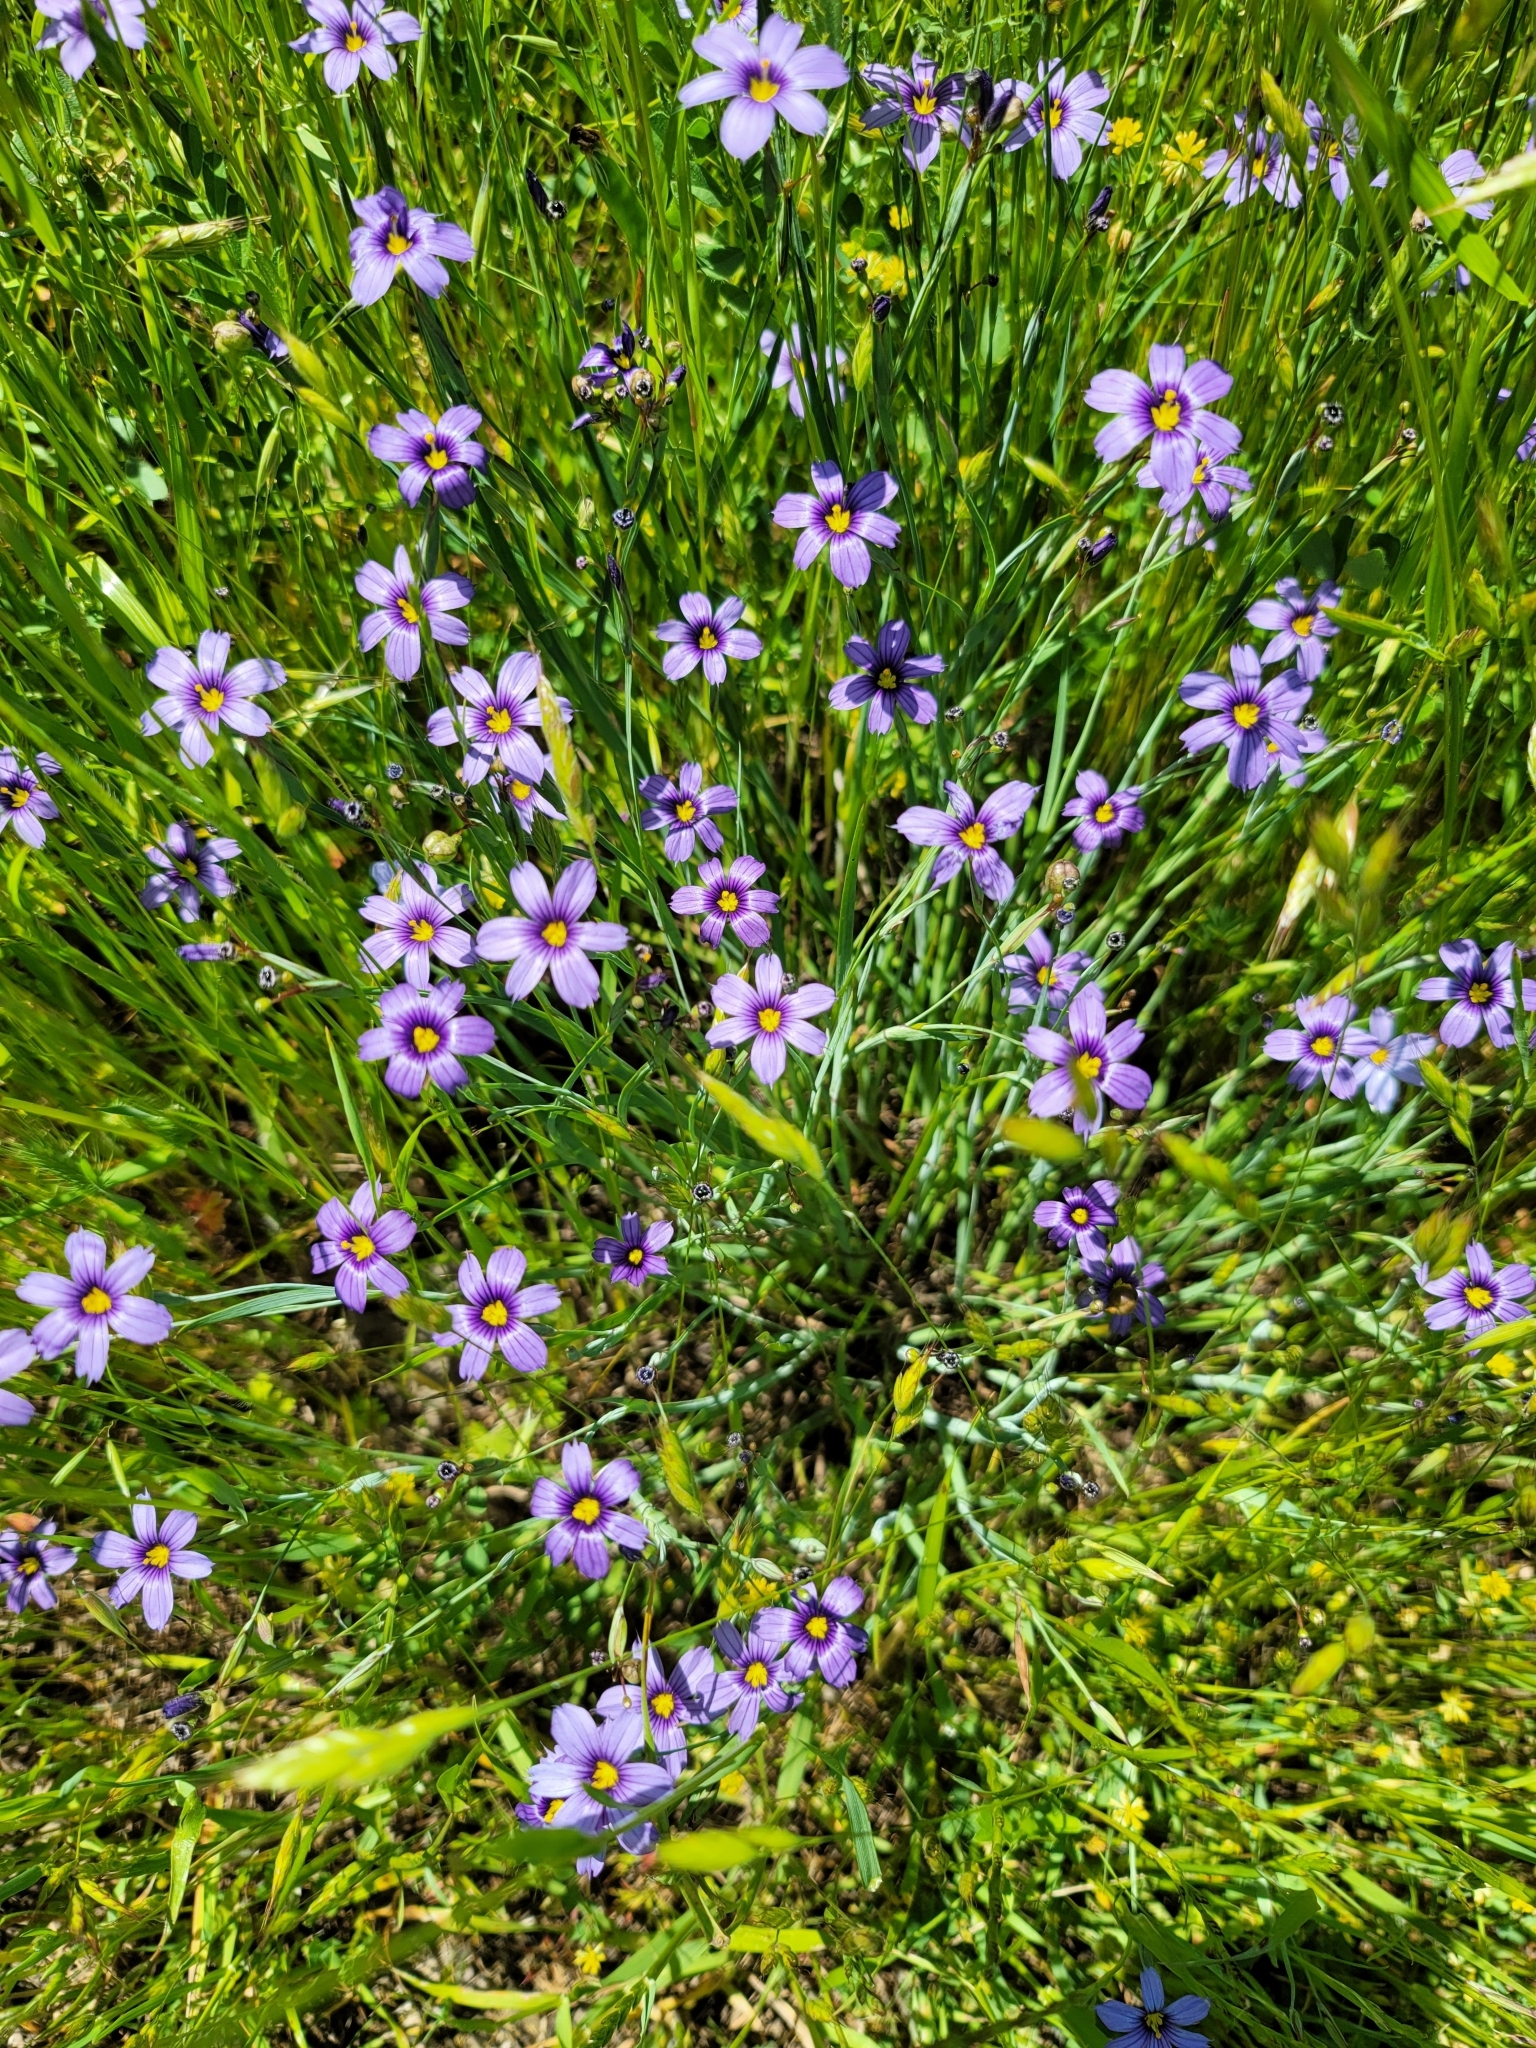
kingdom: Plantae
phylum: Tracheophyta
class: Liliopsida
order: Asparagales
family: Iridaceae
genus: Sisyrinchium
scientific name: Sisyrinchium bellum
